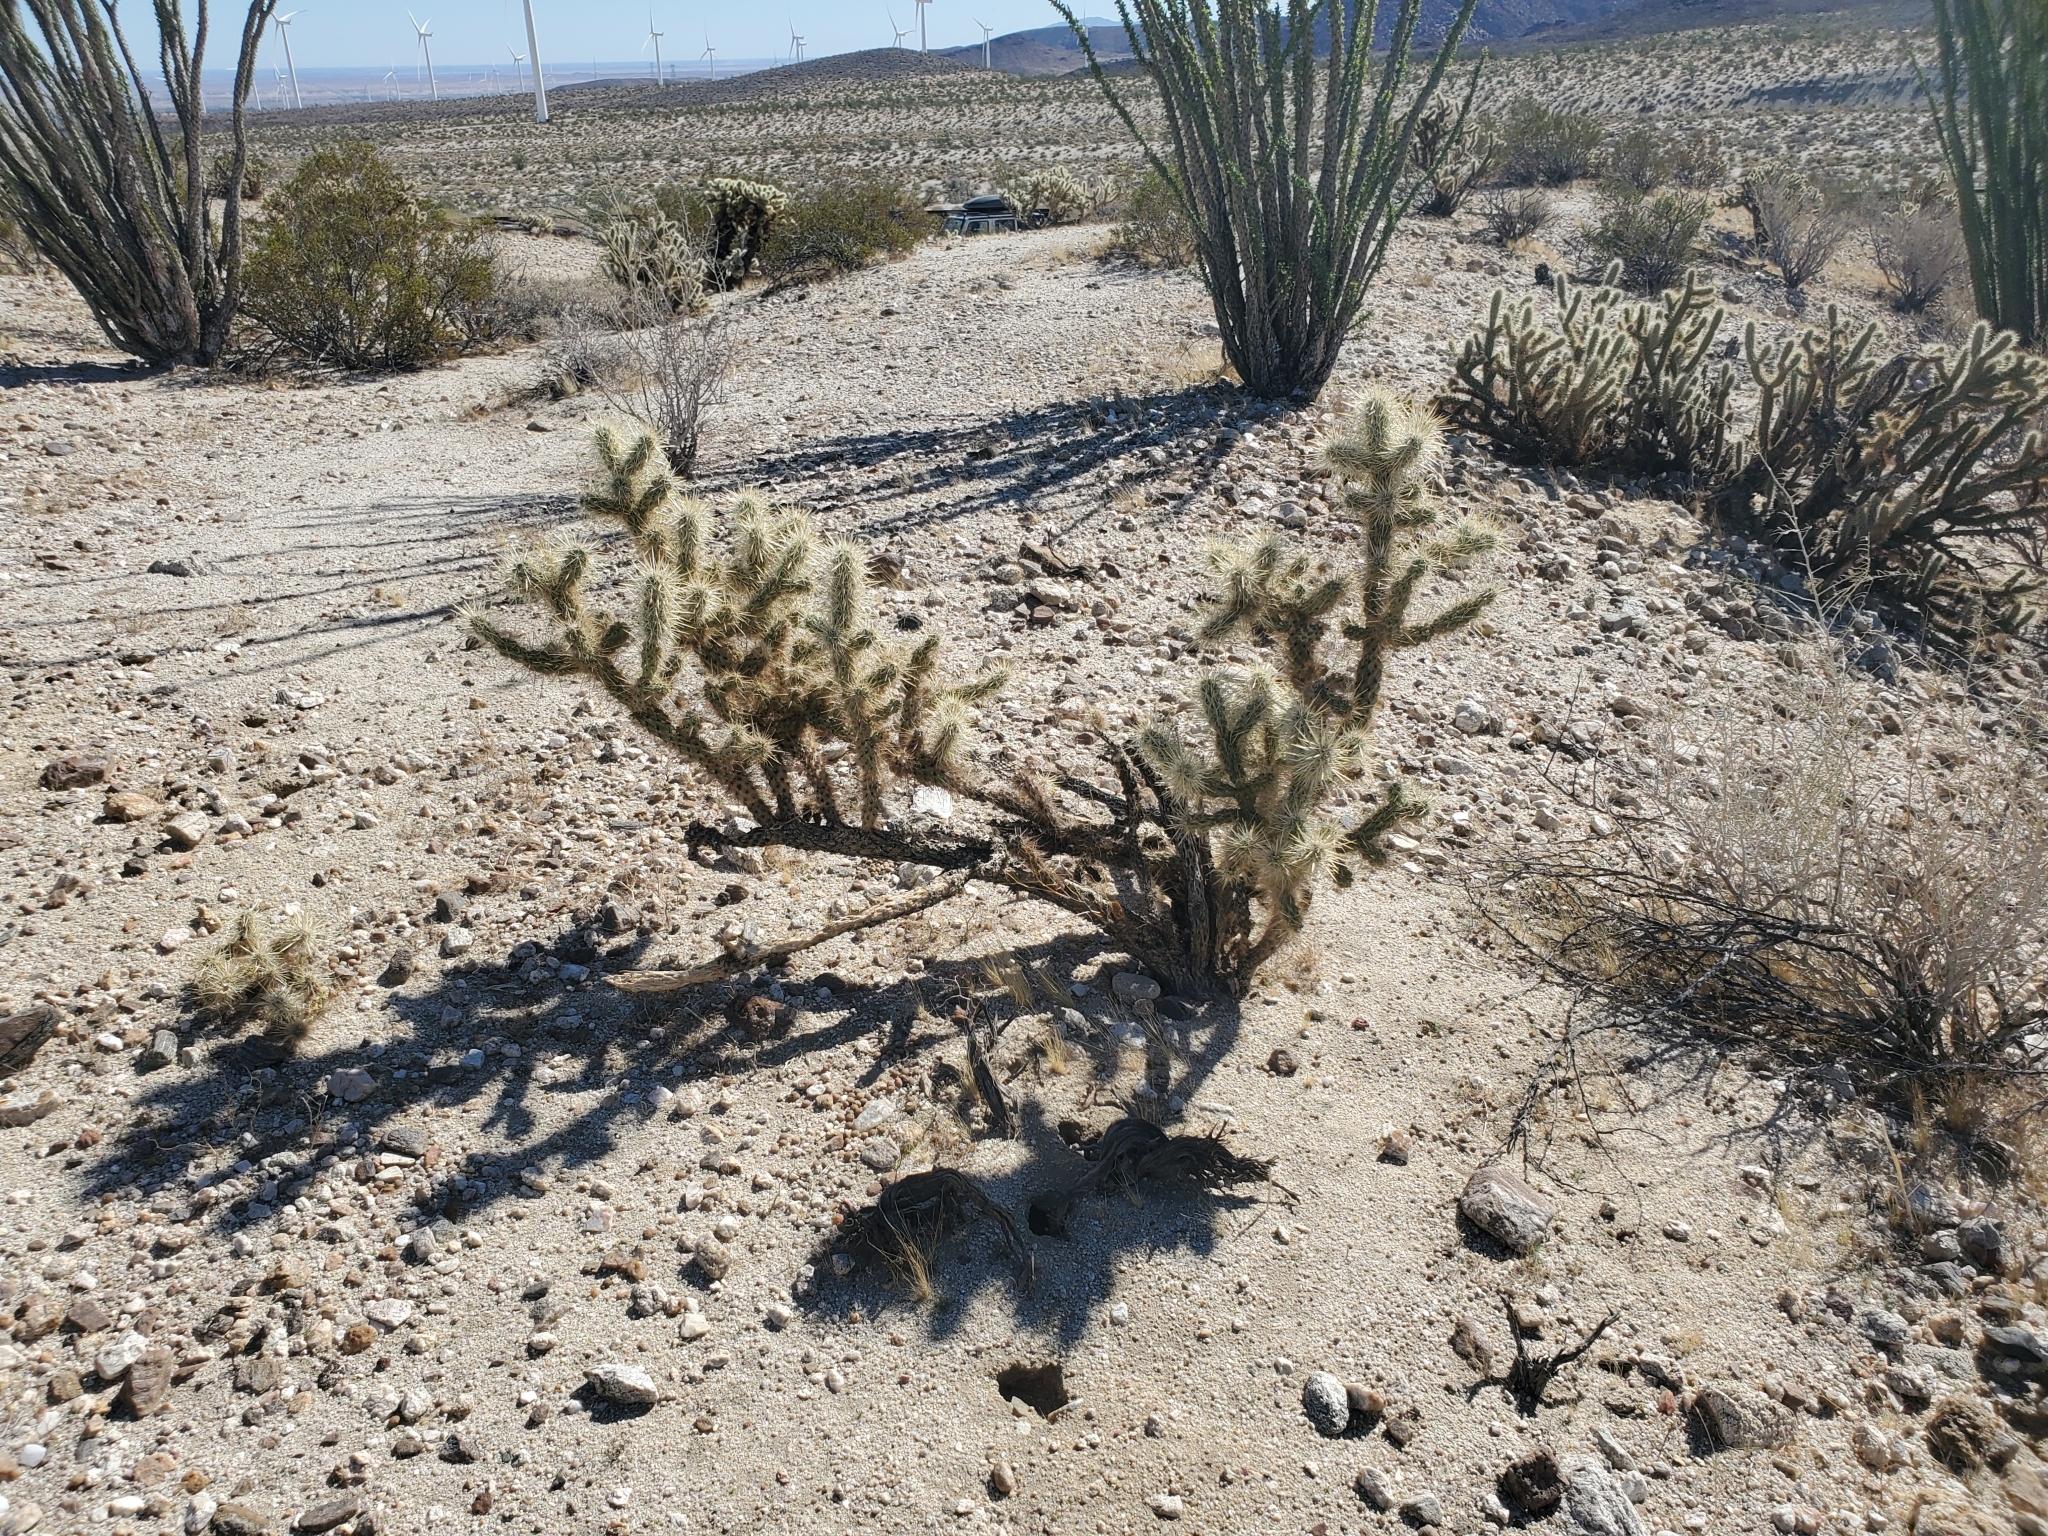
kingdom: Plantae
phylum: Tracheophyta
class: Magnoliopsida
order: Caryophyllales
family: Cactaceae
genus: Cylindropuntia
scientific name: Cylindropuntia echinocarpa
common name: Ground cholla
